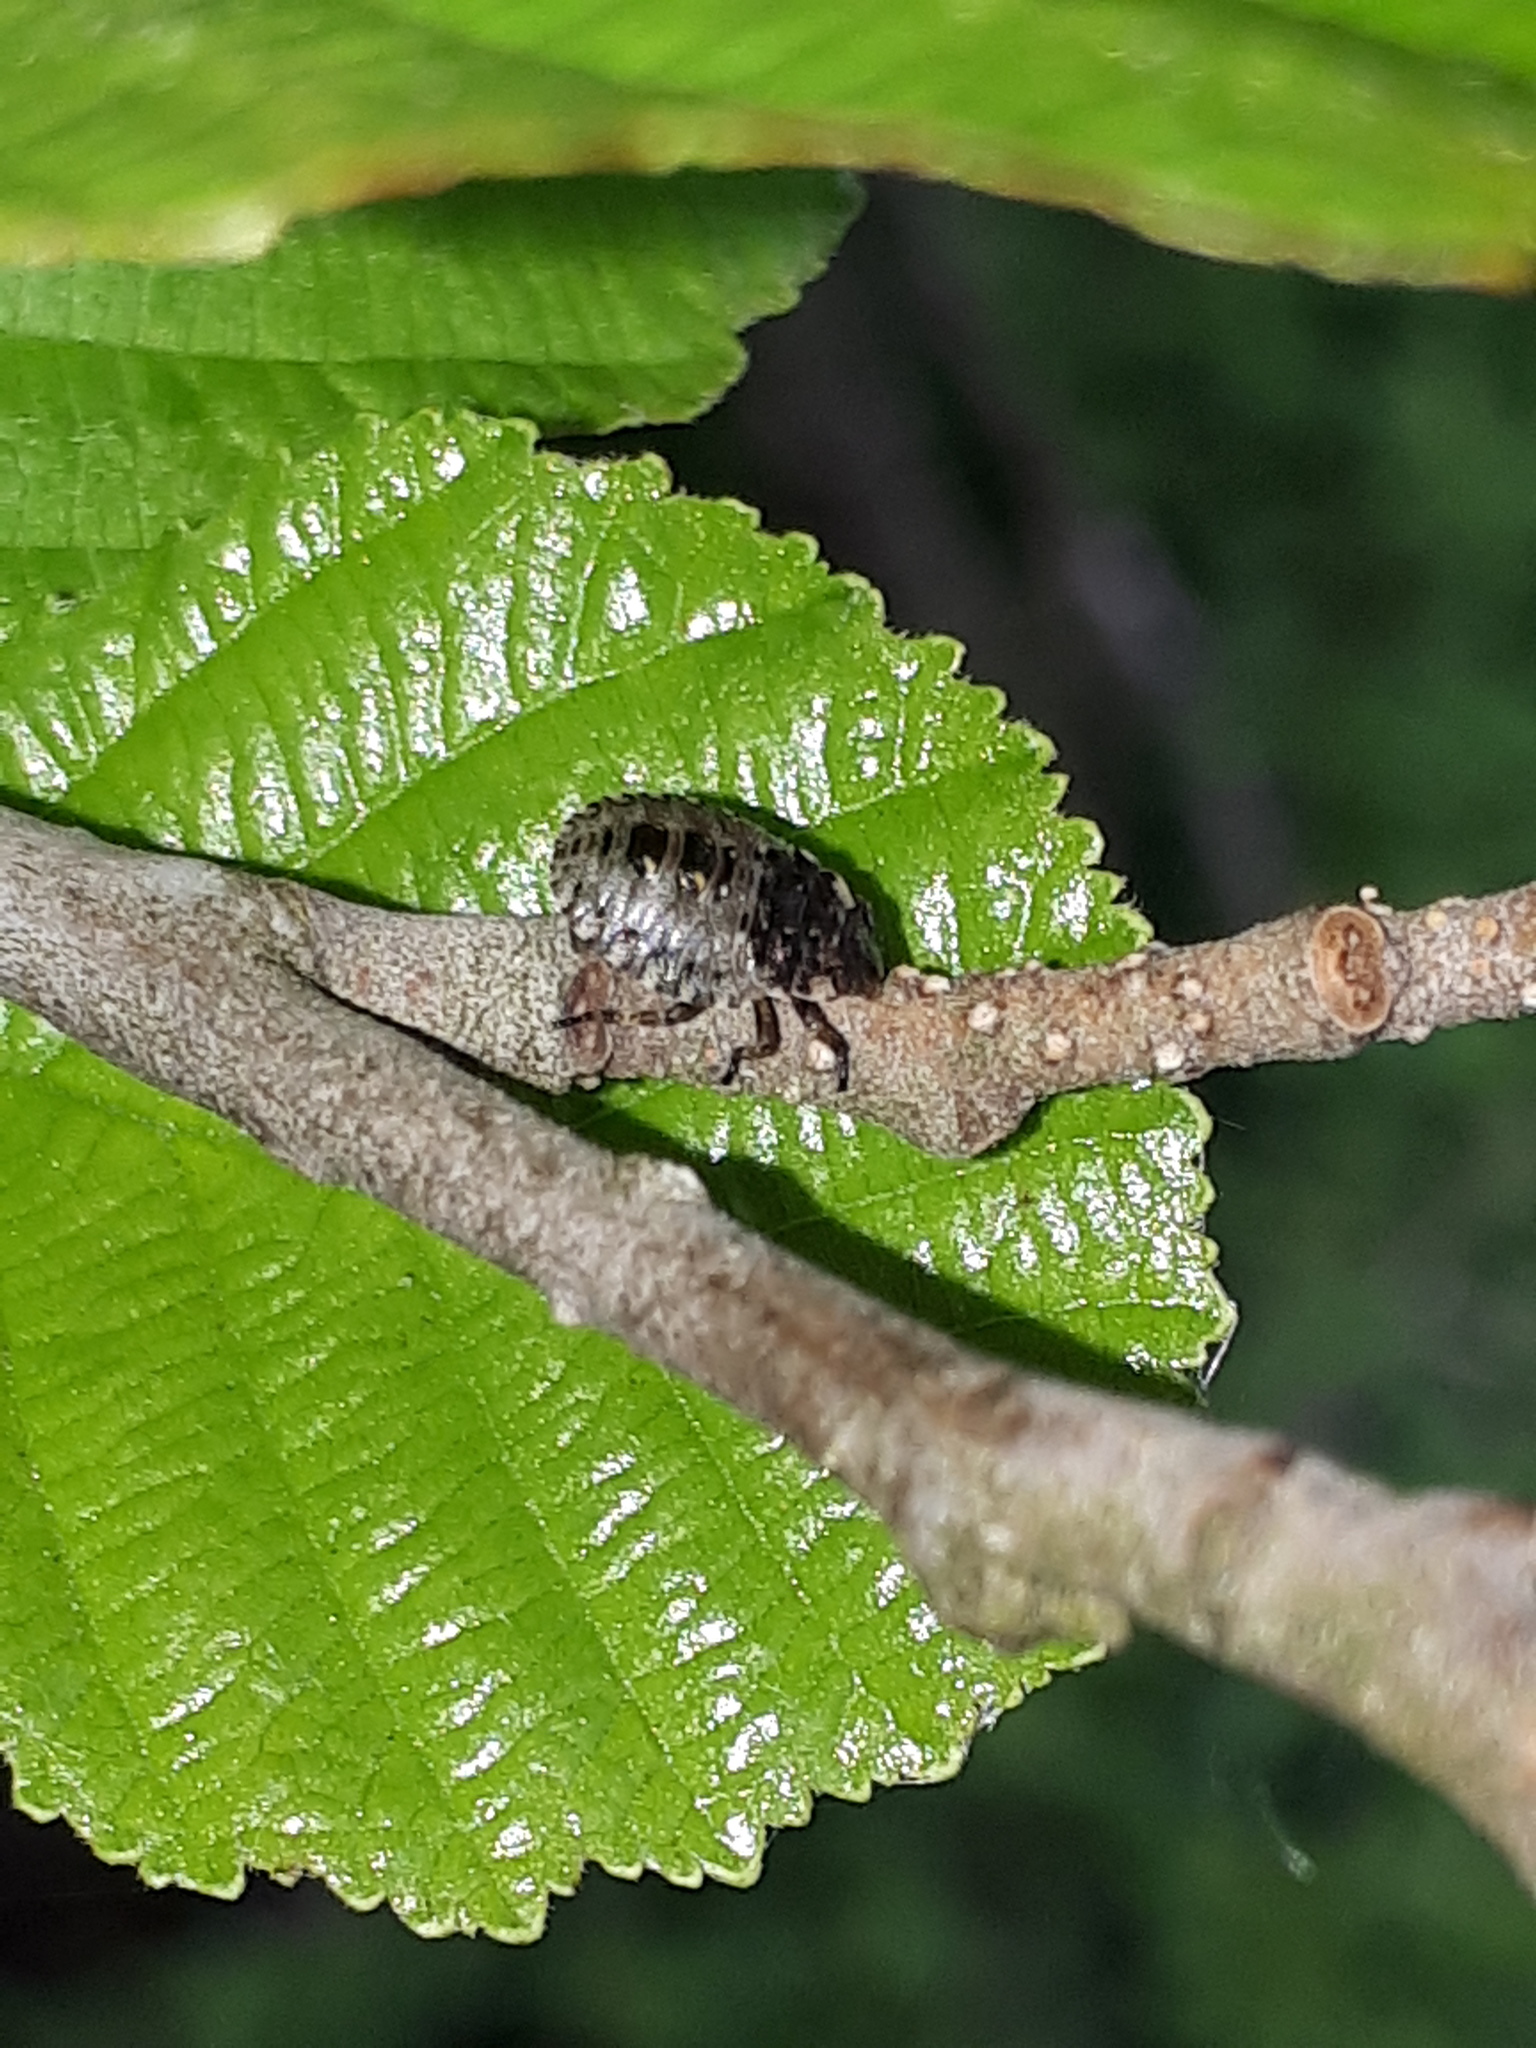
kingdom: Animalia
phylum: Arthropoda
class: Insecta
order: Hemiptera
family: Pentatomidae
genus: Pentatoma
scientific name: Pentatoma rufipes
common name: Forest bug
